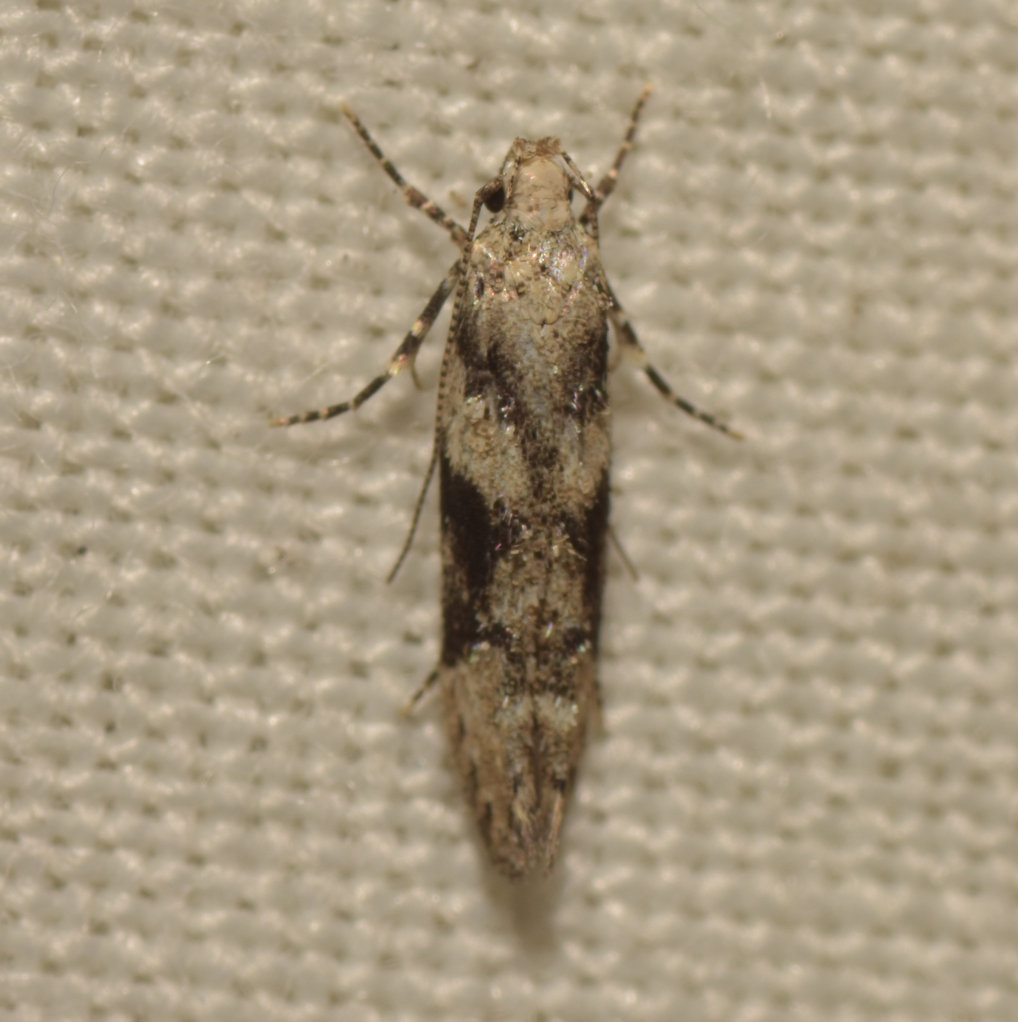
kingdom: Animalia
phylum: Arthropoda
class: Insecta
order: Lepidoptera
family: Gelechiidae
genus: Coleotechnites
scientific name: Coleotechnites atrupictella
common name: Spruce micromoth
